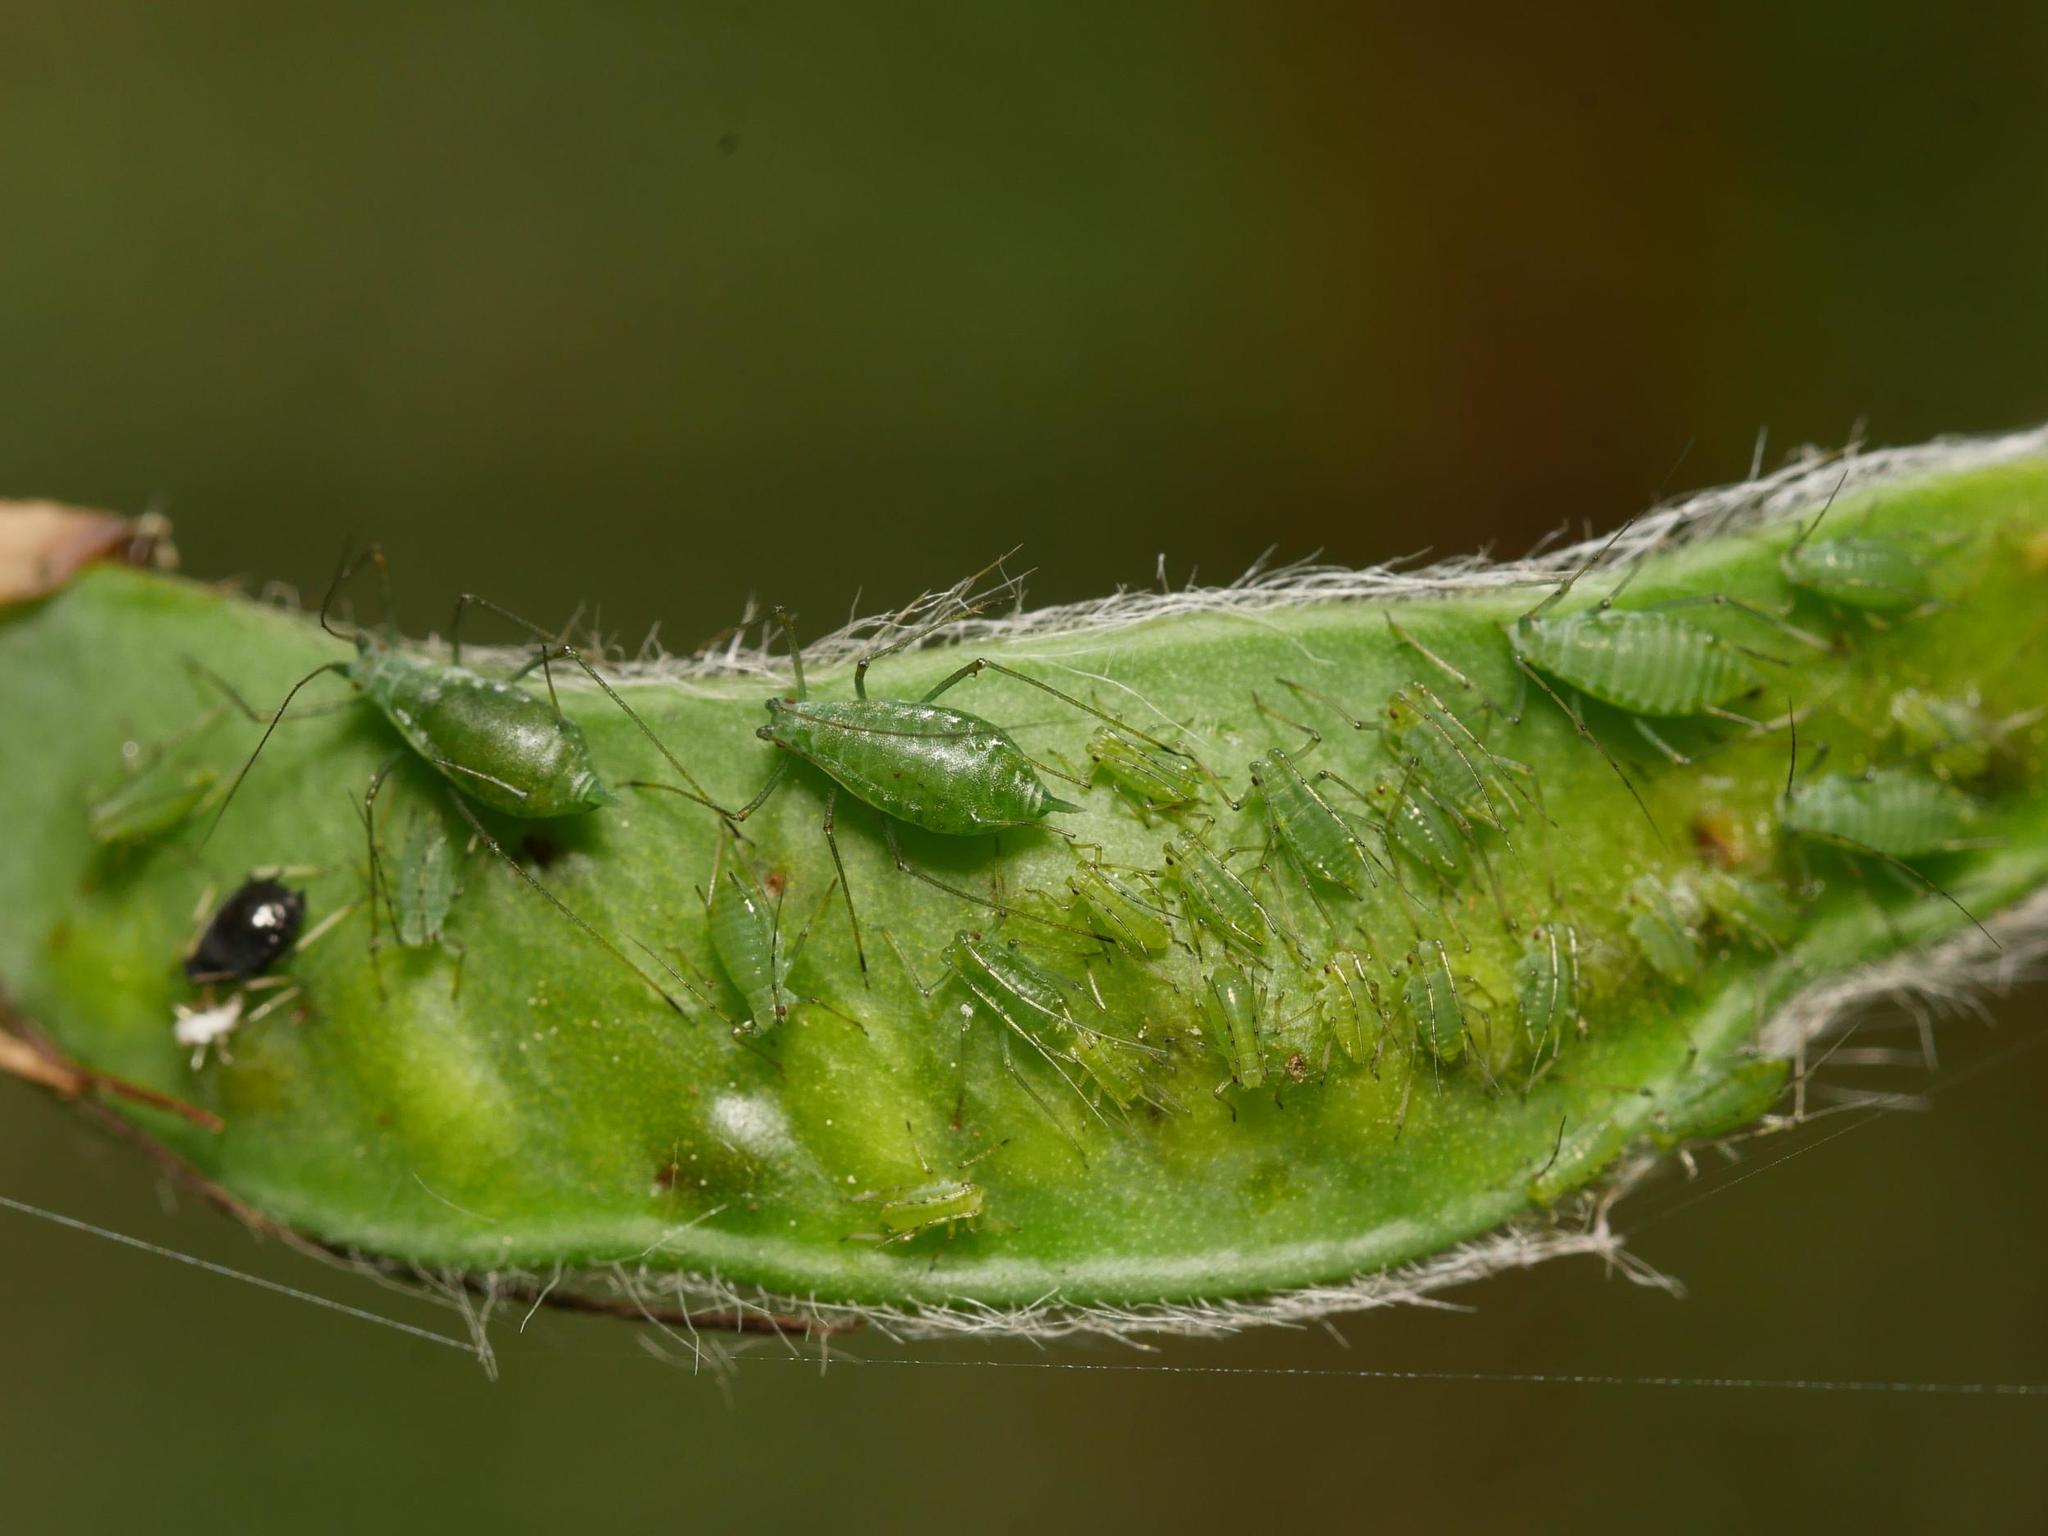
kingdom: Animalia
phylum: Arthropoda
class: Insecta
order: Hemiptera
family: Aphididae
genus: Acyrthosiphon
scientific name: Acyrthosiphon pisum
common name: Pea aphid
